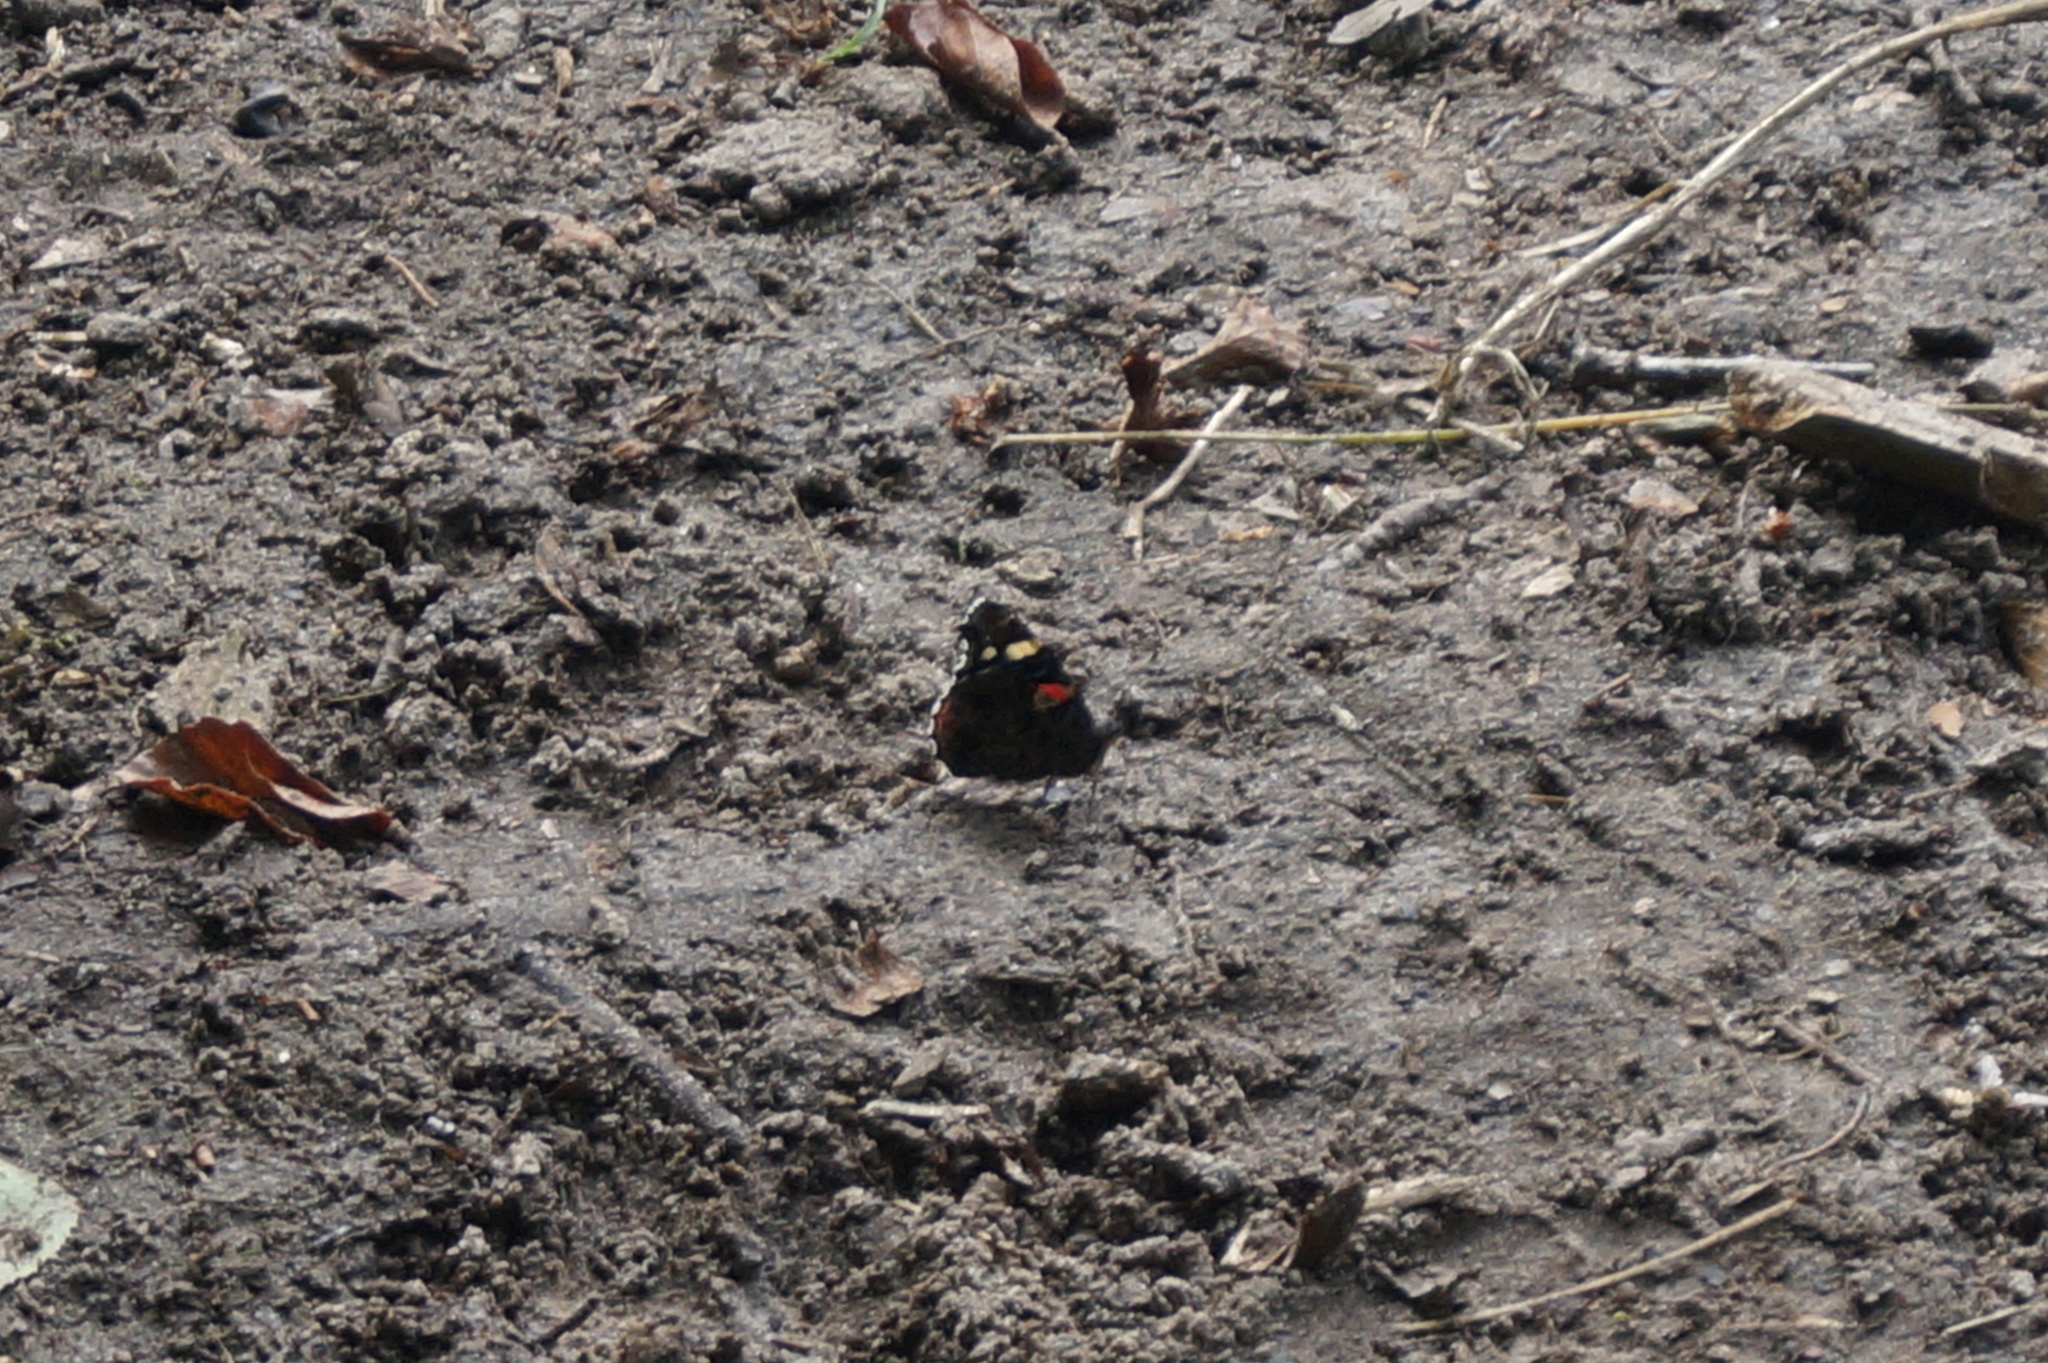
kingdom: Animalia
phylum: Arthropoda
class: Insecta
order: Lepidoptera
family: Nymphalidae
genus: Vanessa
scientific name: Vanessa atalanta
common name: Red admiral
